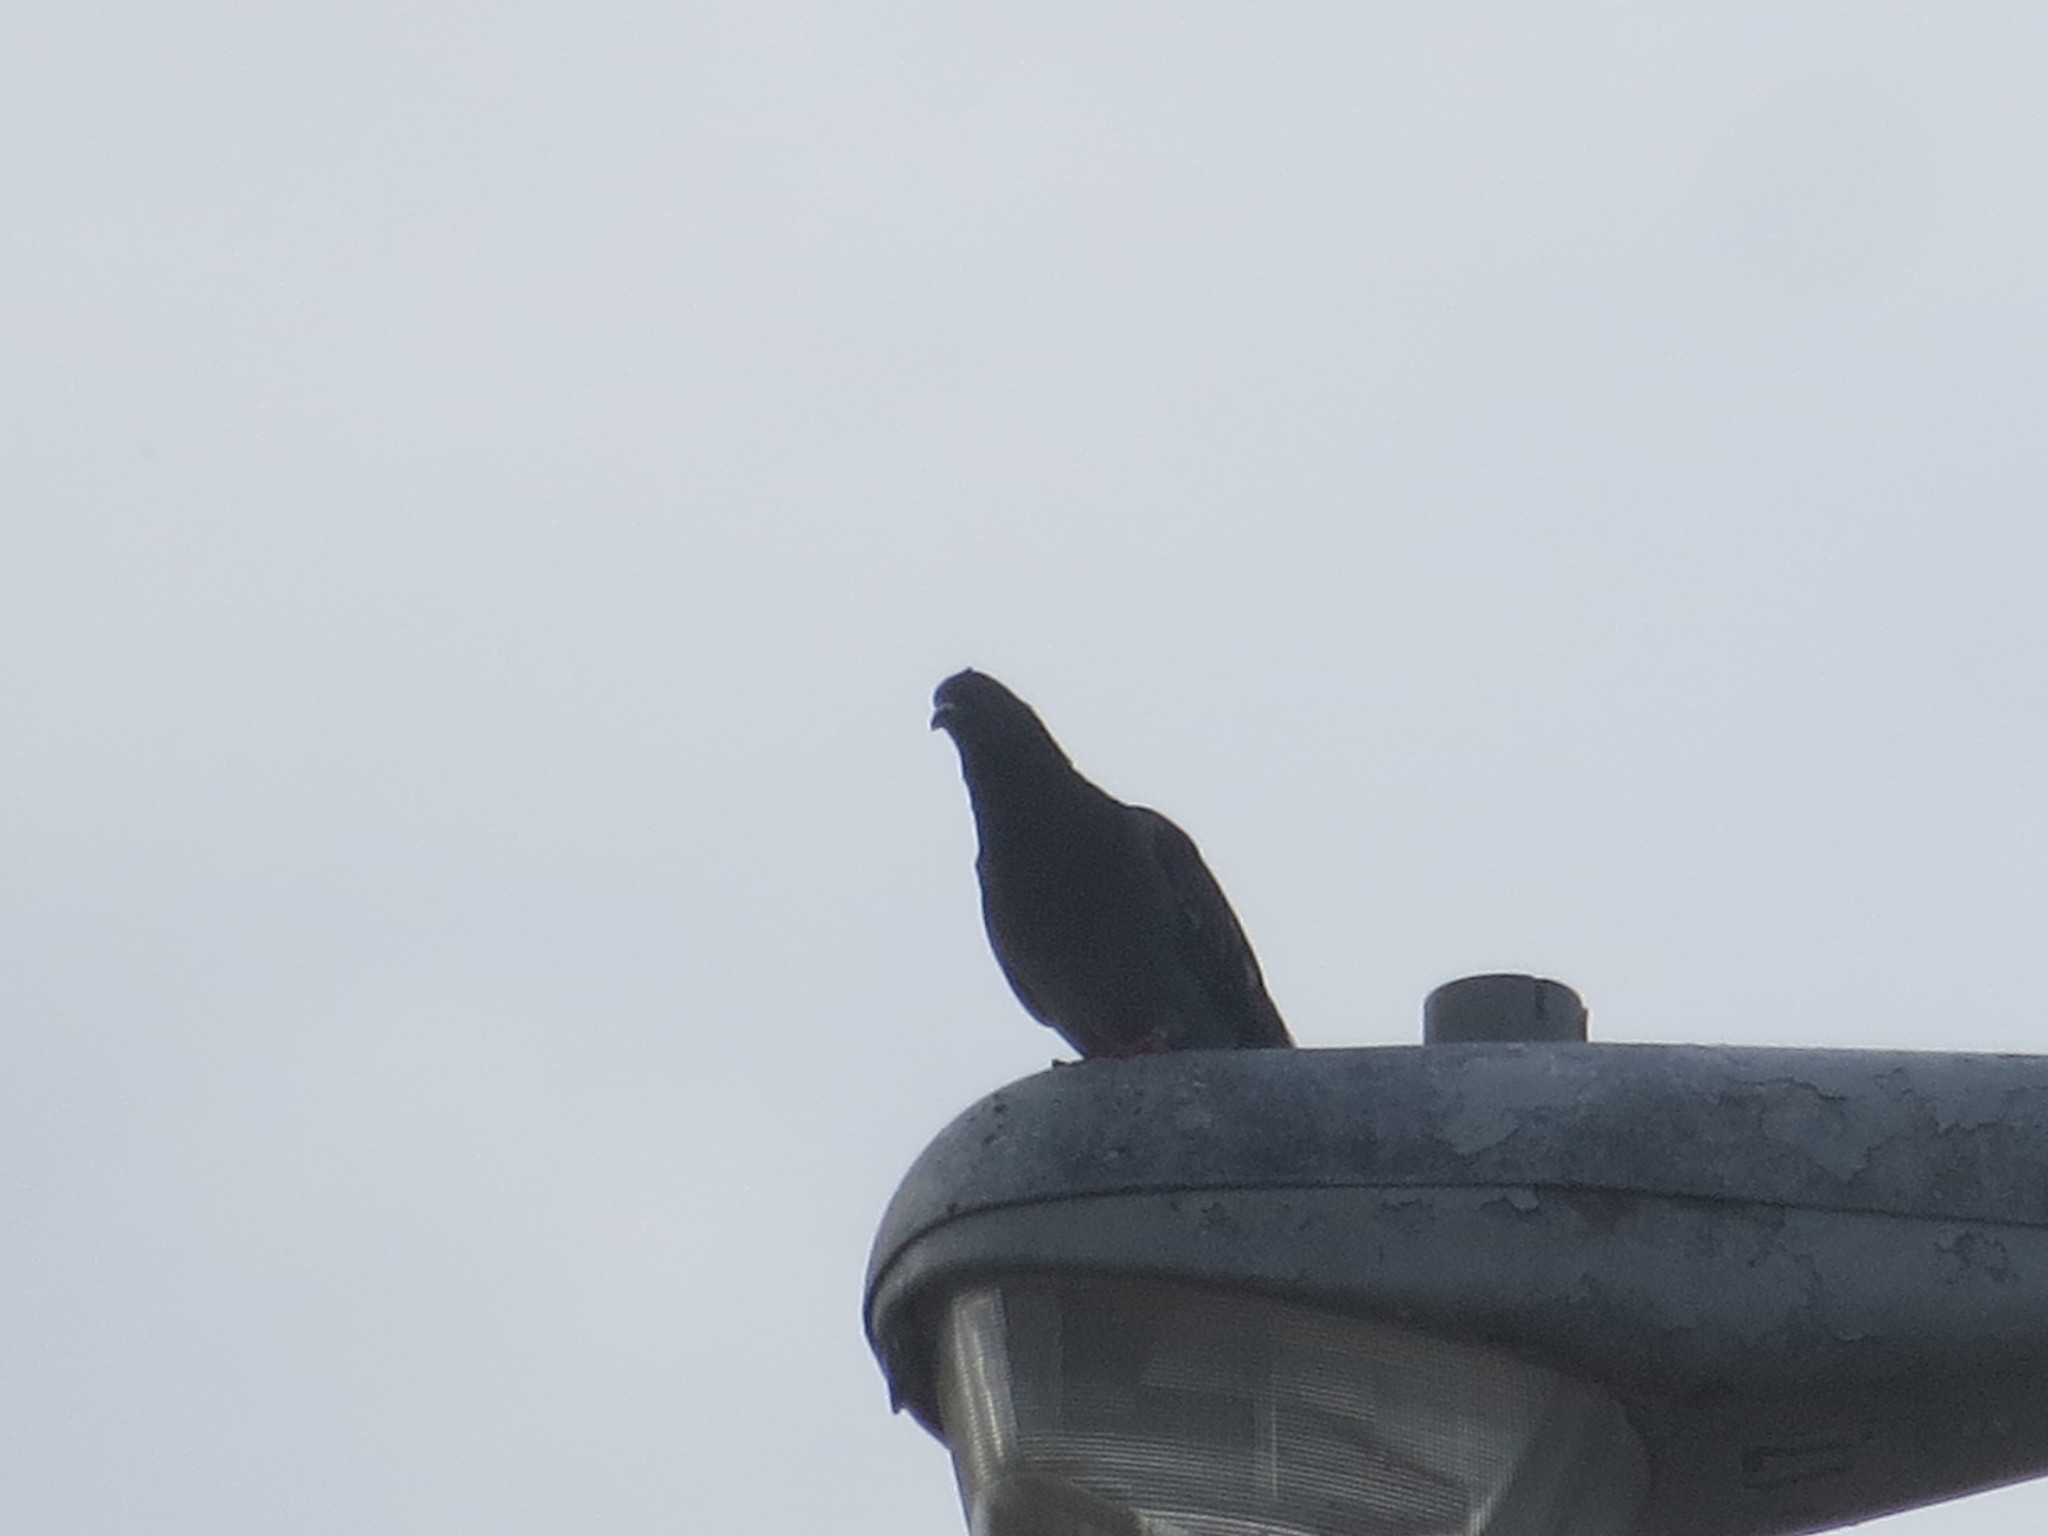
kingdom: Animalia
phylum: Chordata
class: Aves
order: Columbiformes
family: Columbidae
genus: Columba
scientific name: Columba livia
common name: Rock pigeon
